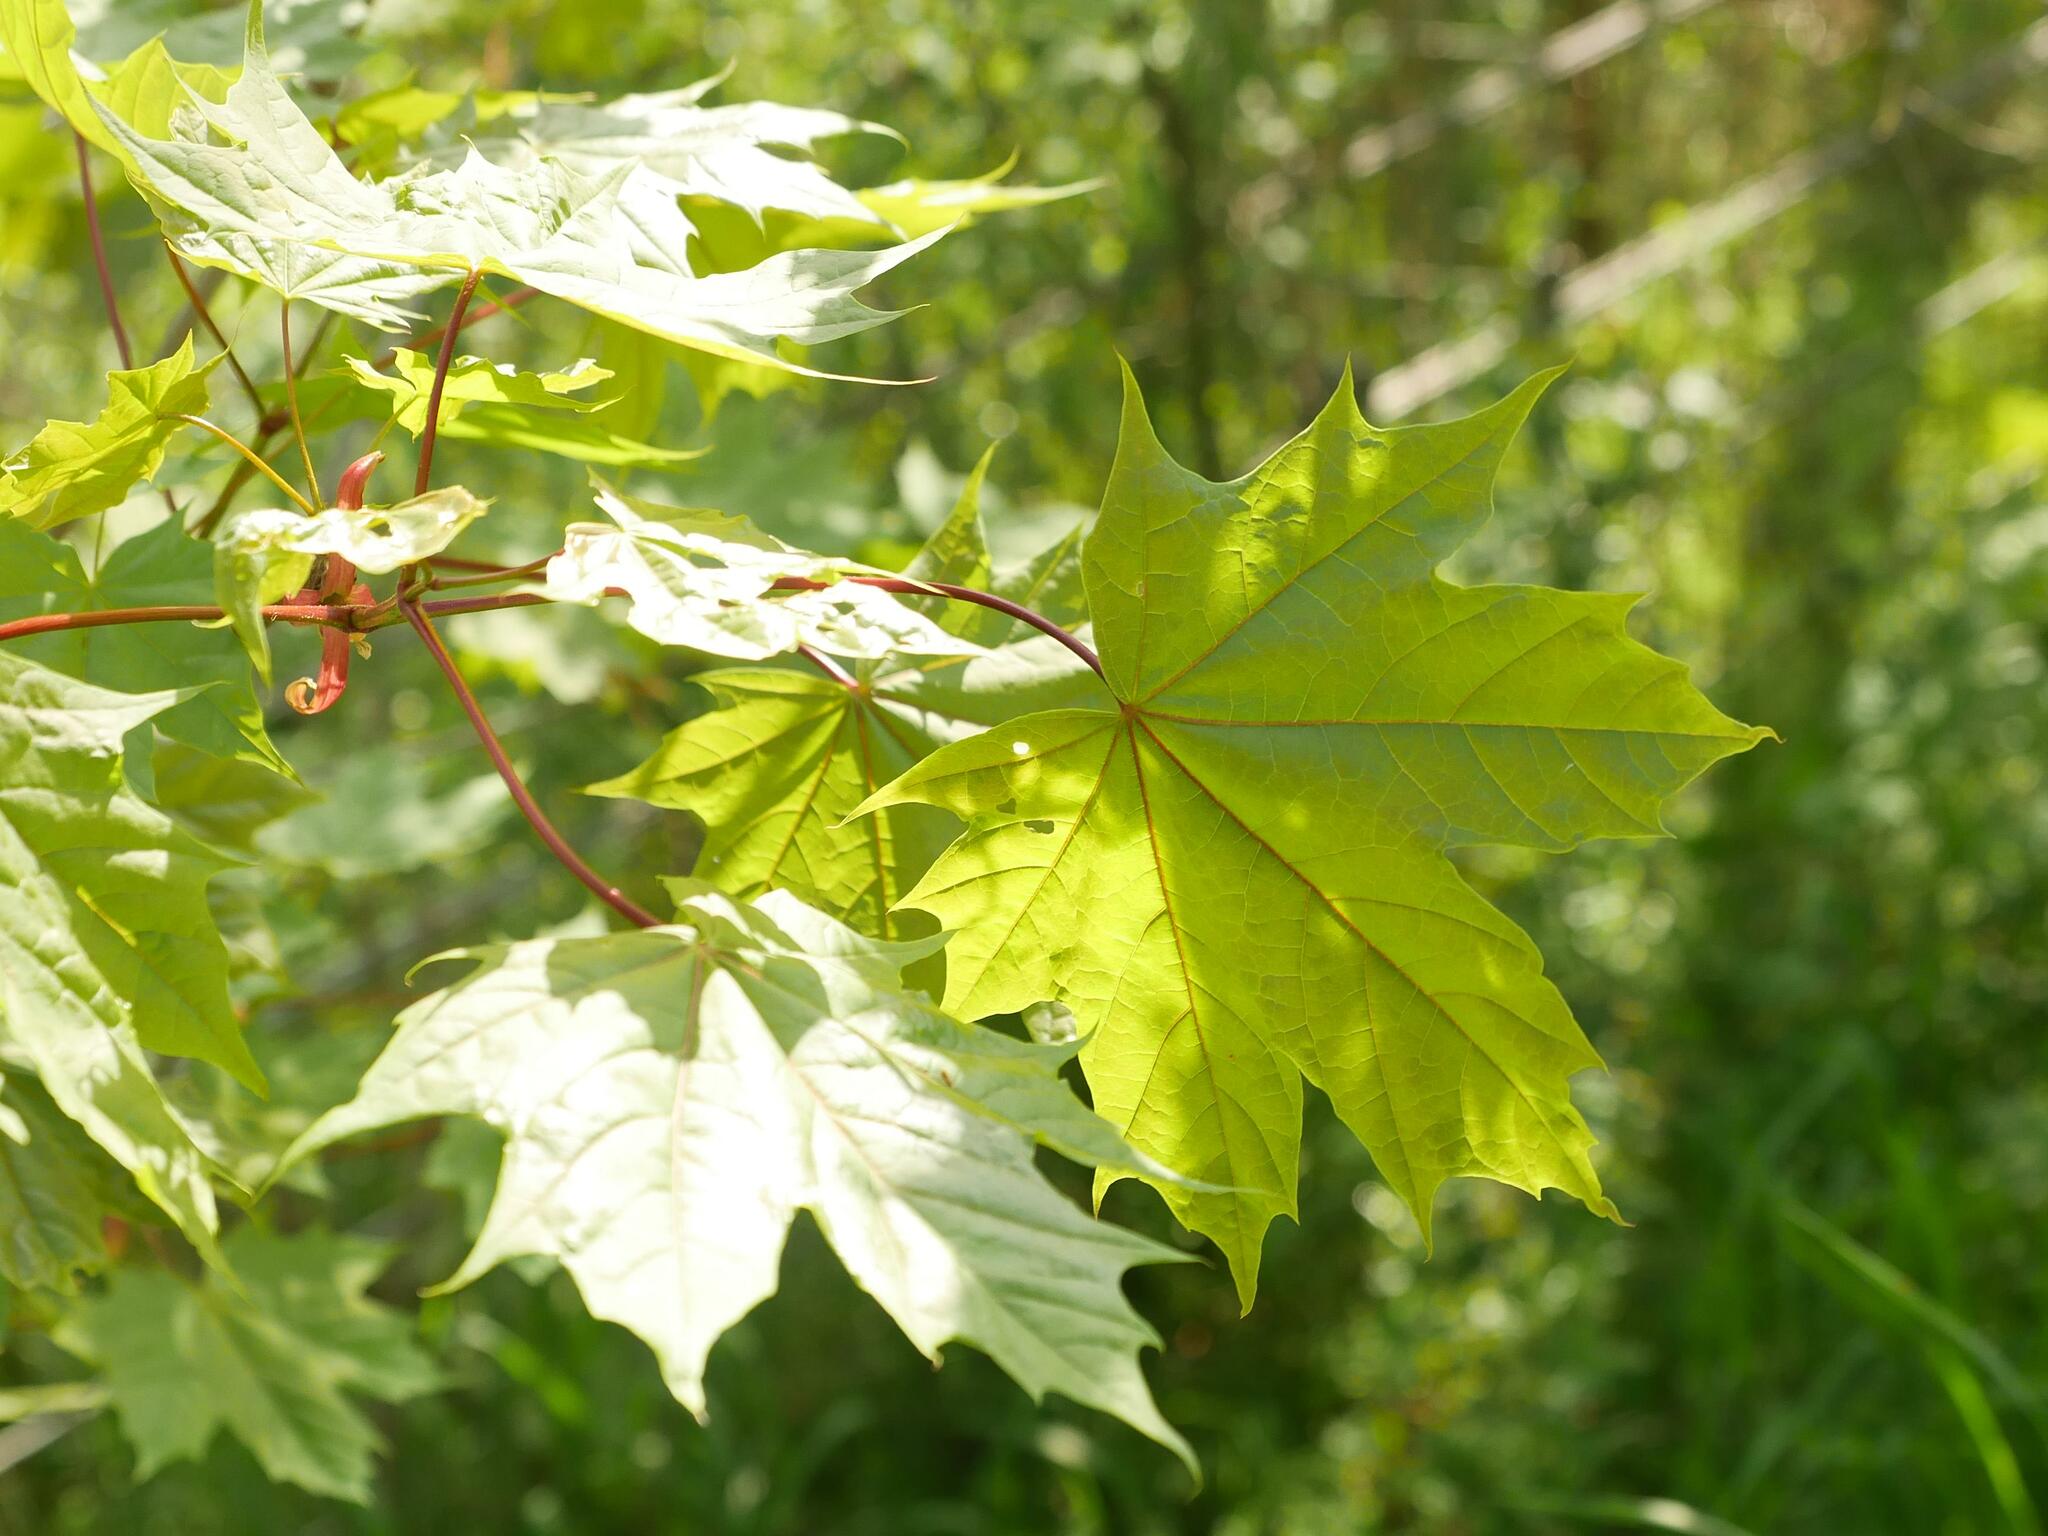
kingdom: Plantae
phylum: Tracheophyta
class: Magnoliopsida
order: Sapindales
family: Sapindaceae
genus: Acer
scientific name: Acer platanoides
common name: Norway maple
